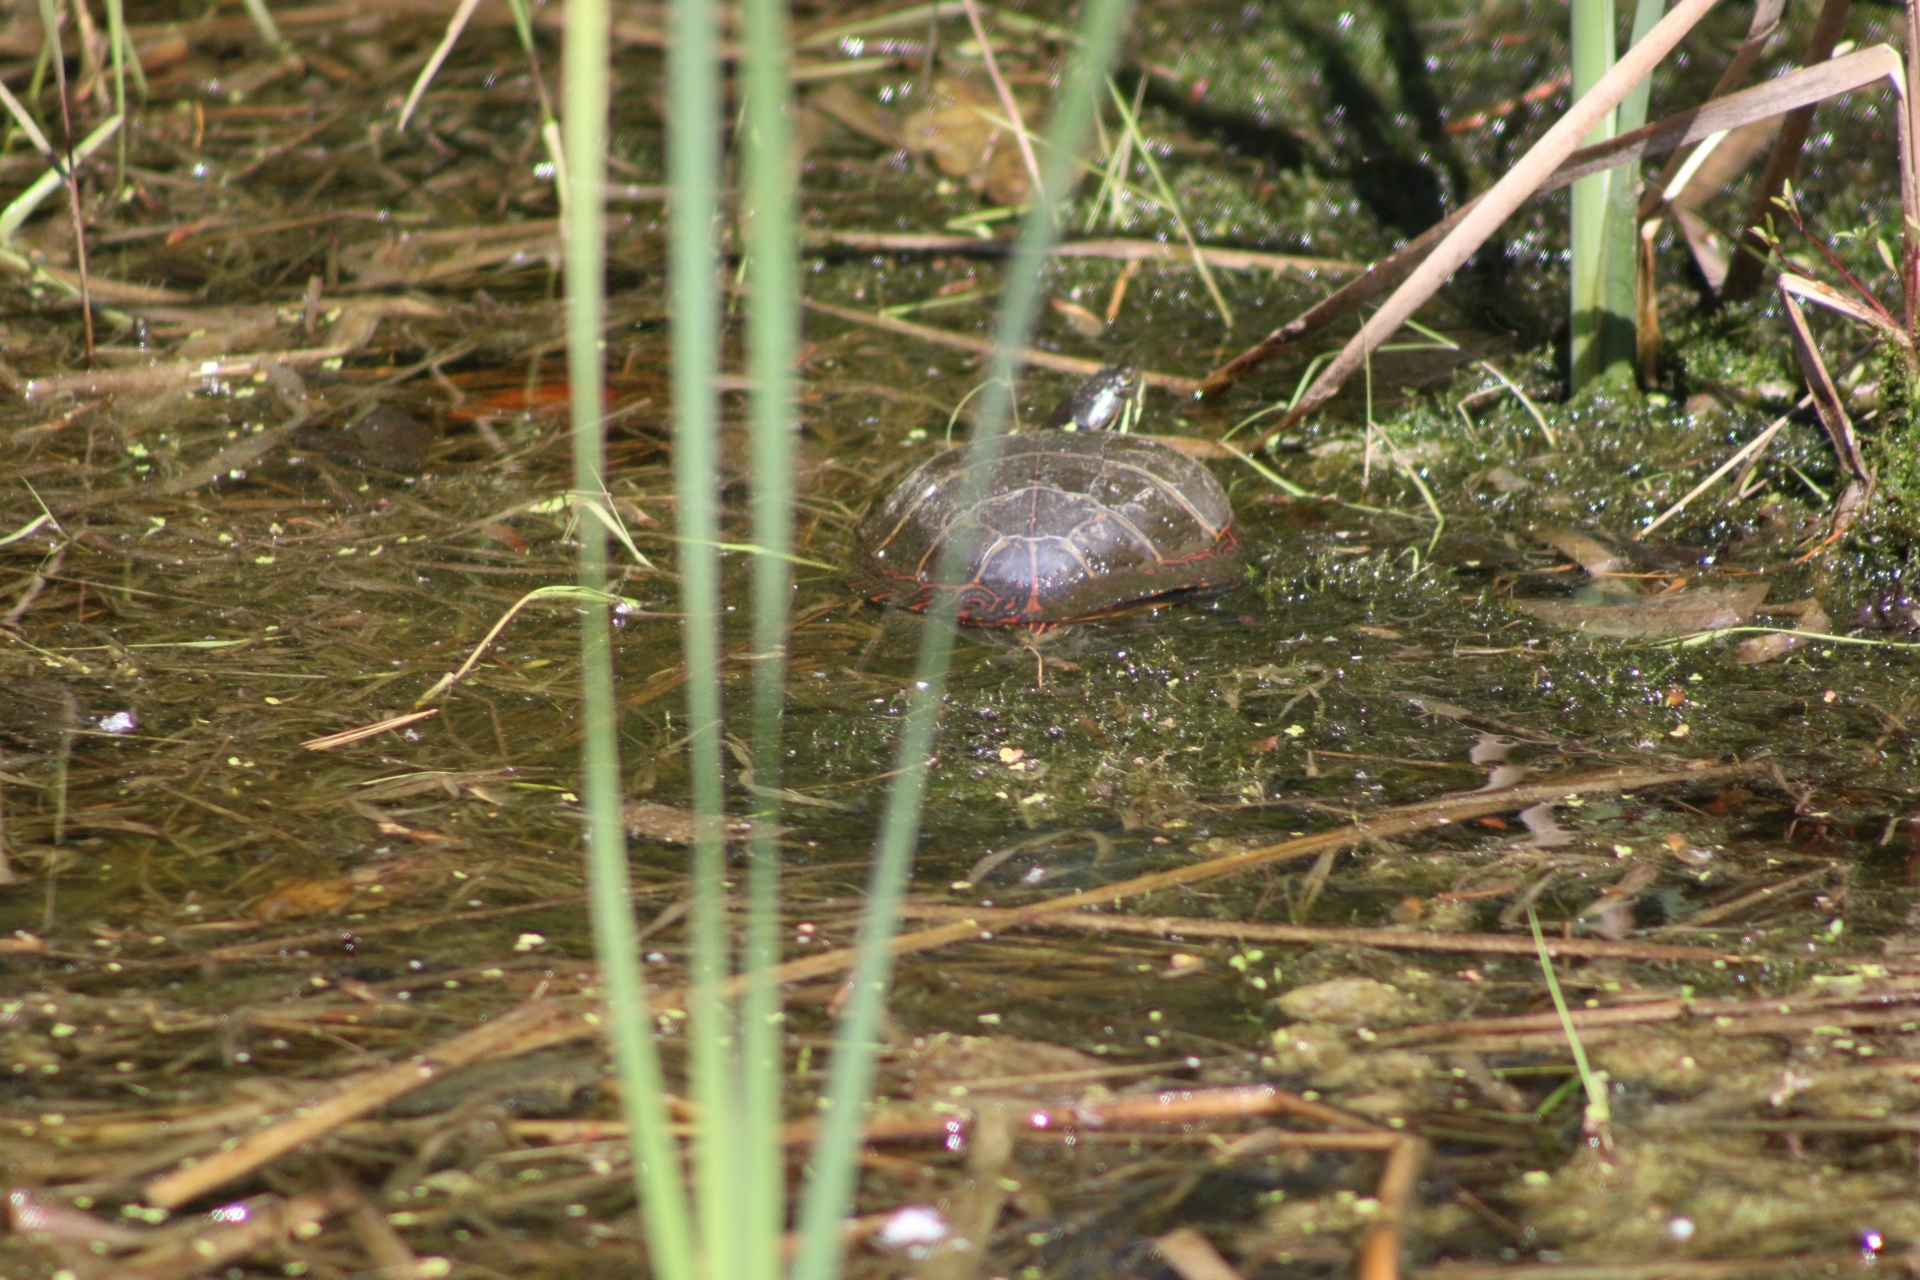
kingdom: Animalia
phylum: Chordata
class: Testudines
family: Emydidae
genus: Chrysemys
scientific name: Chrysemys picta
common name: Painted turtle
